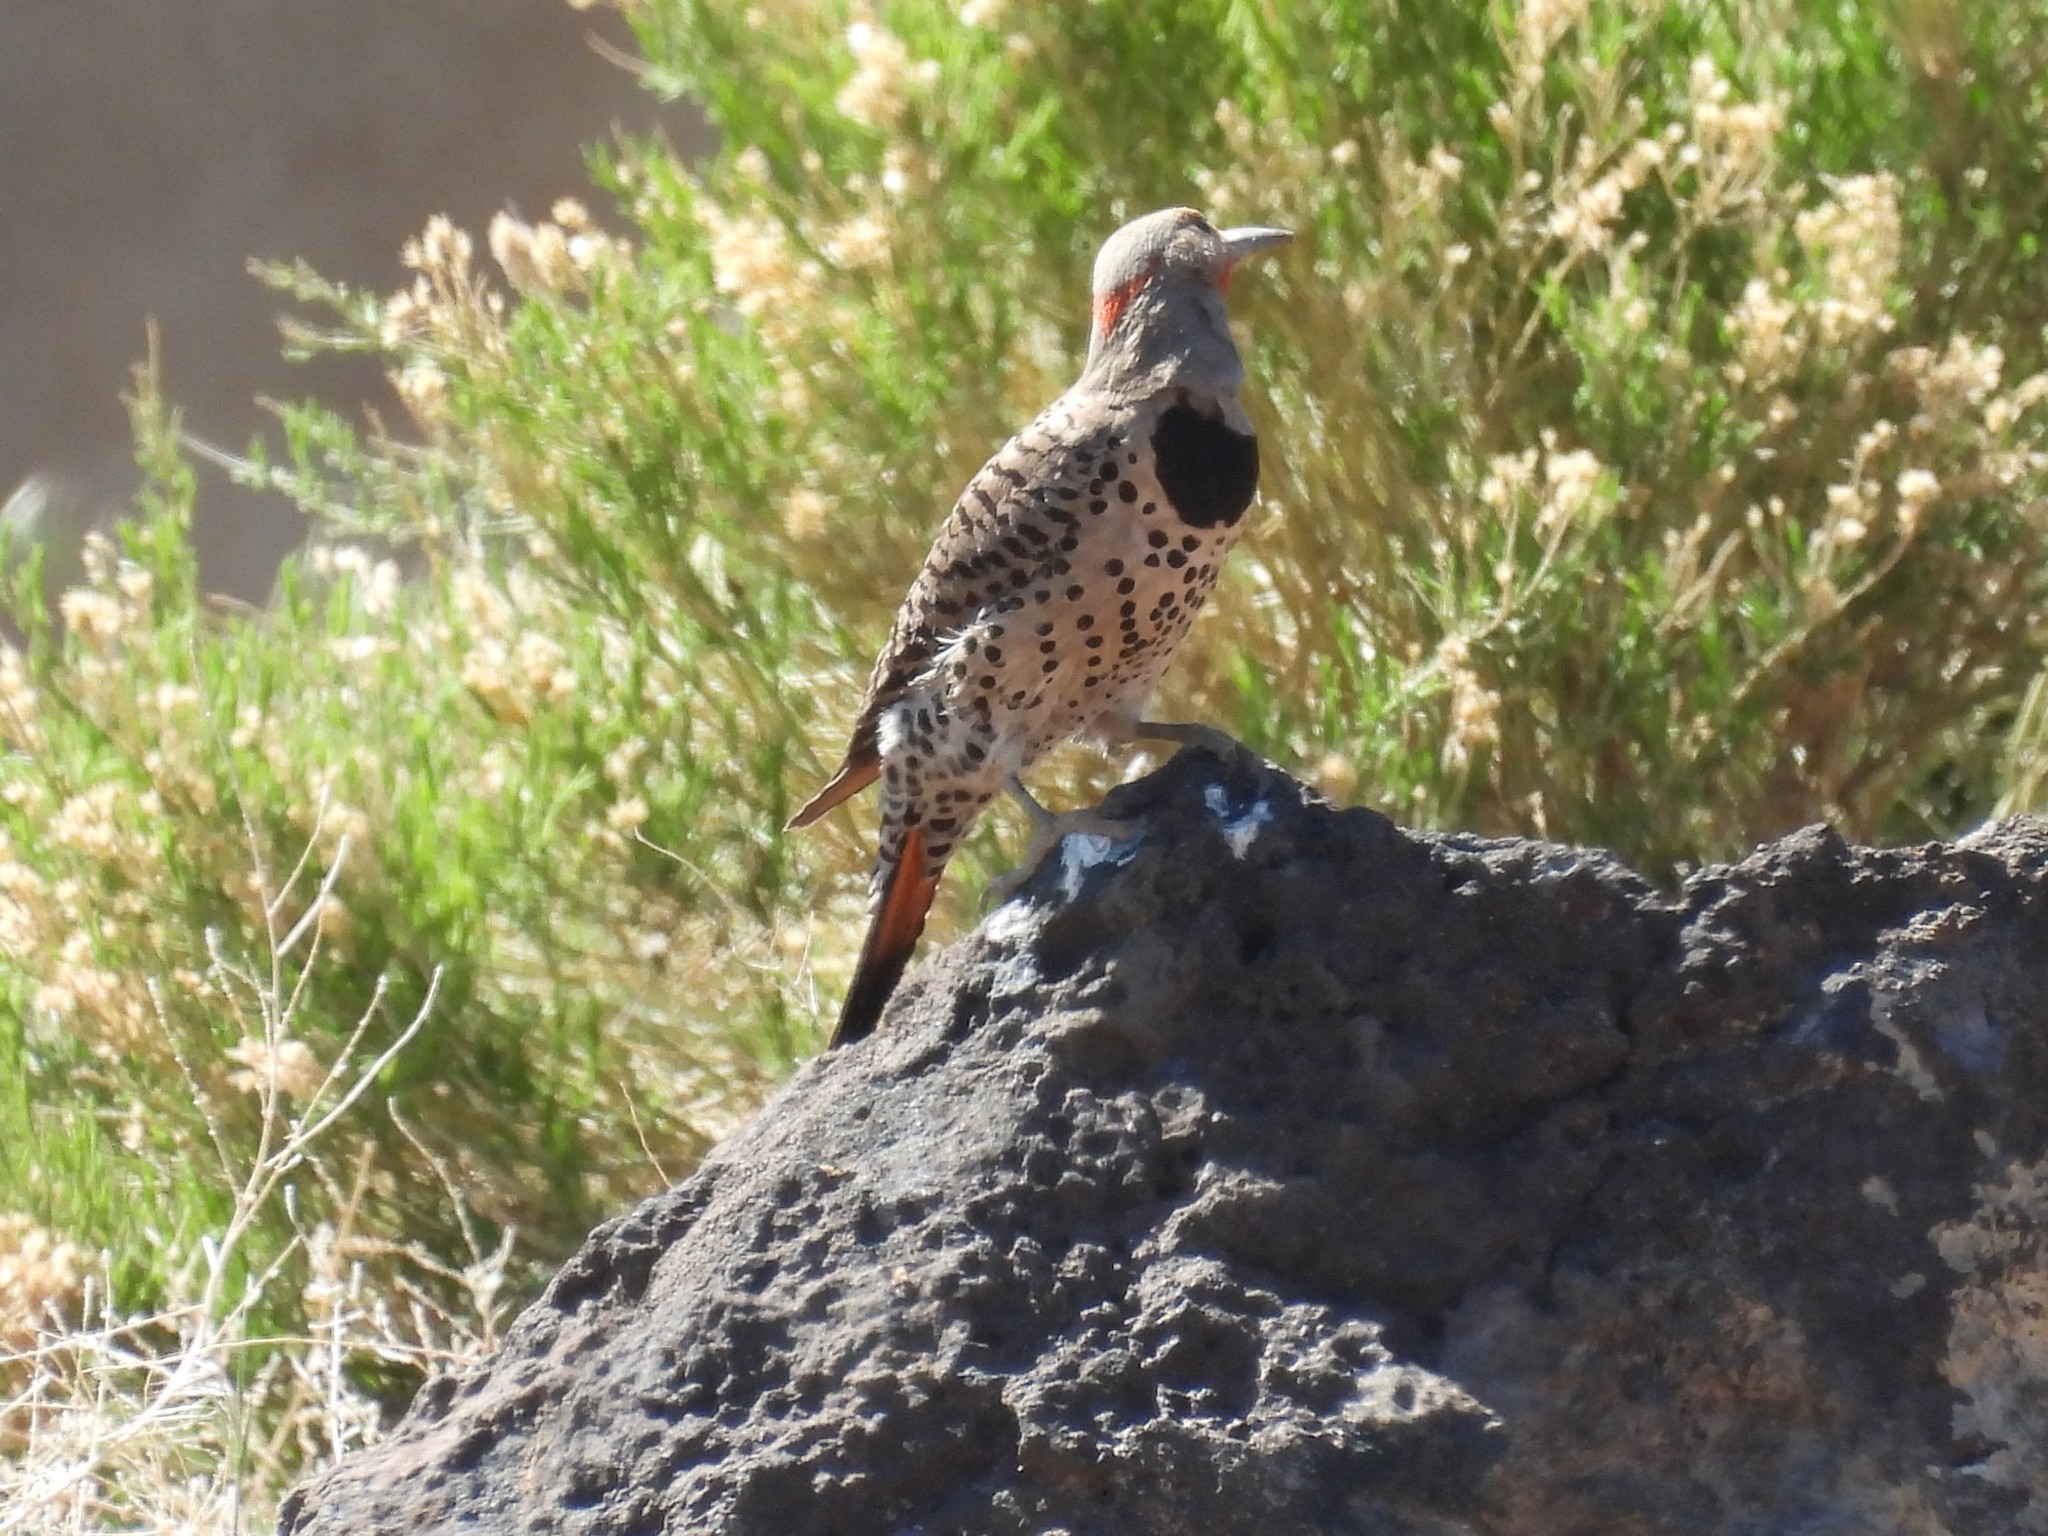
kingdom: Animalia
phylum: Chordata
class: Aves
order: Piciformes
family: Picidae
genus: Colaptes
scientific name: Colaptes auratus
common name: Northern flicker
